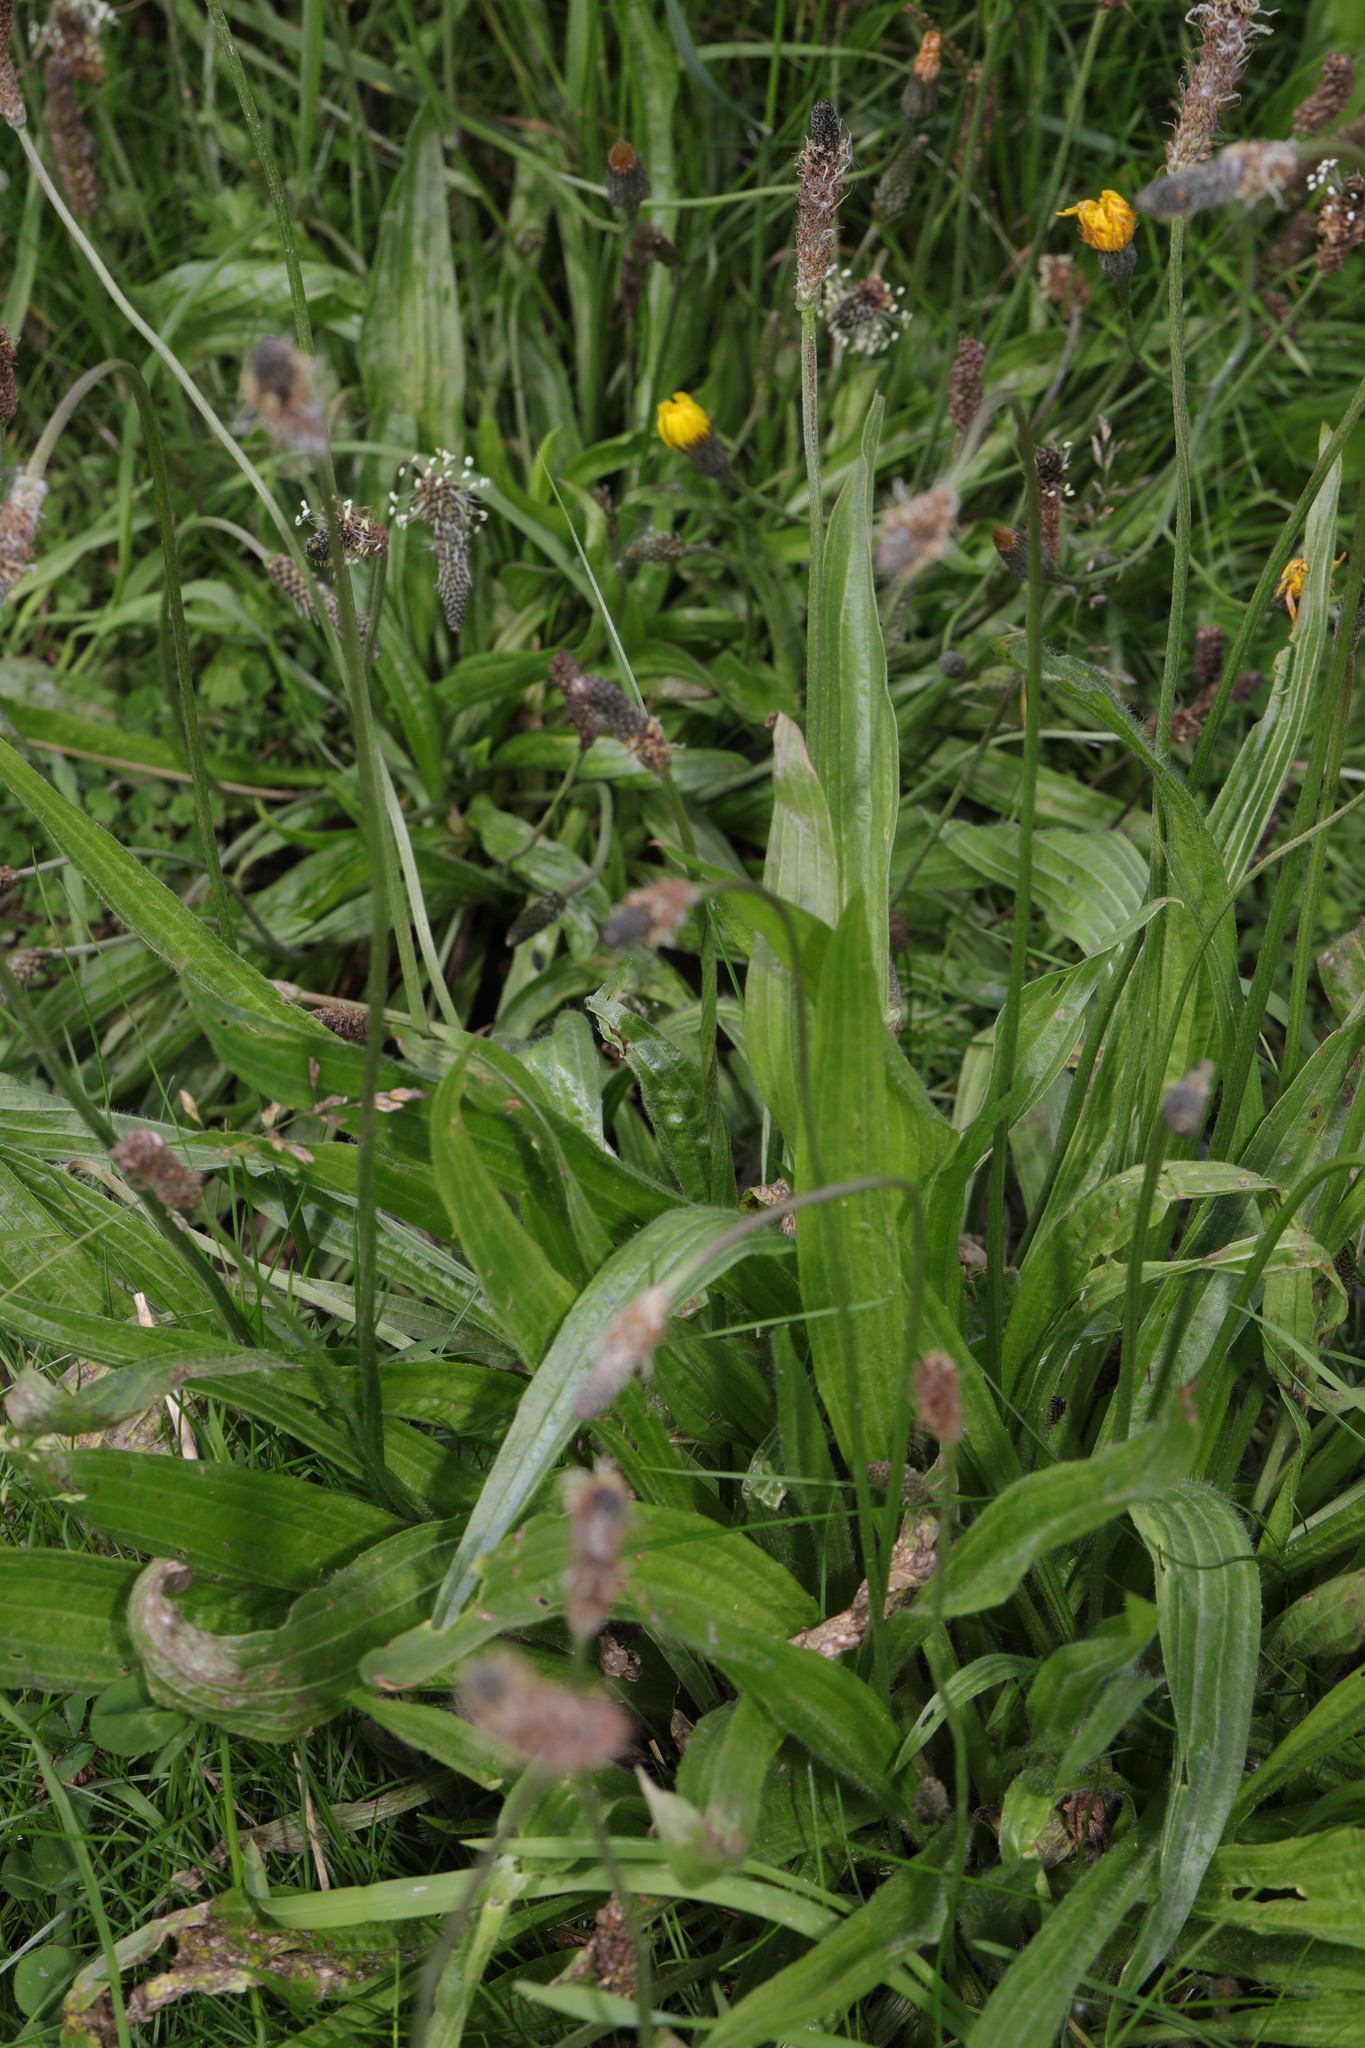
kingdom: Plantae
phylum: Tracheophyta
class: Magnoliopsida
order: Lamiales
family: Plantaginaceae
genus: Plantago
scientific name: Plantago lanceolata
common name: Ribwort plantain
